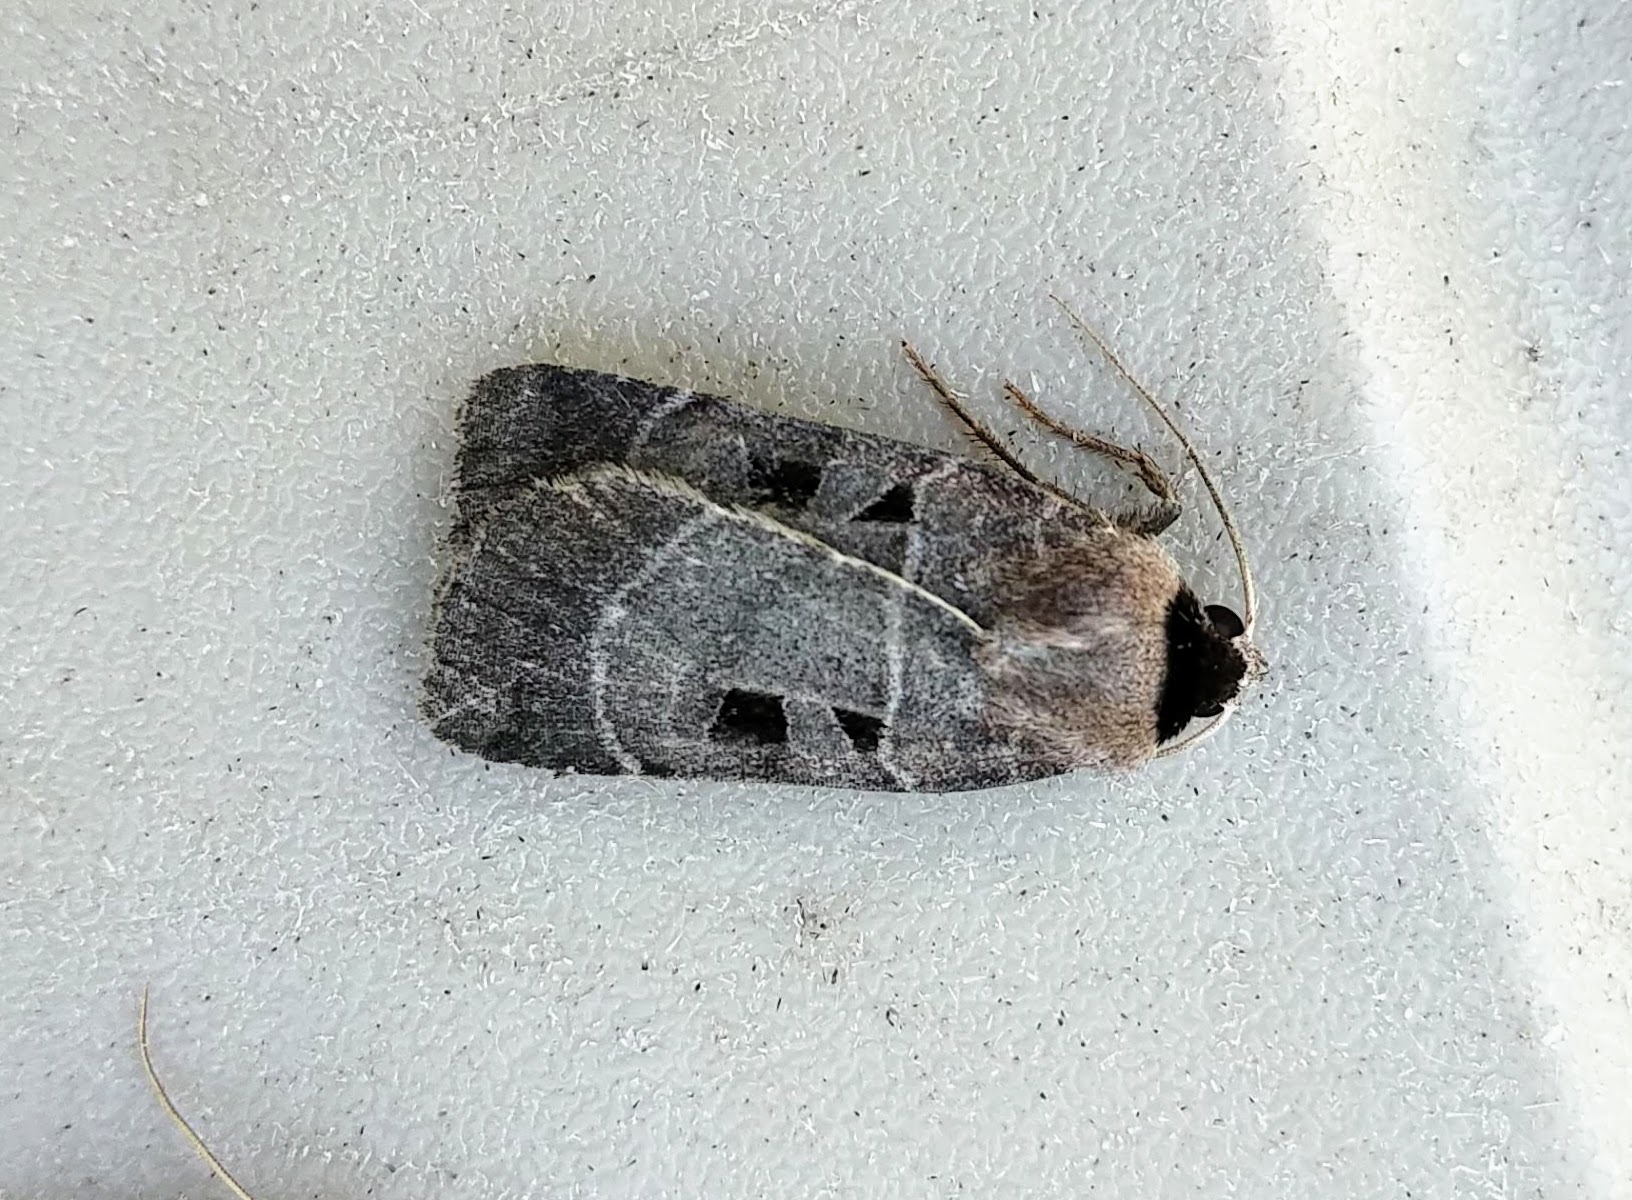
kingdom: Animalia
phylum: Arthropoda
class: Insecta
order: Lepidoptera
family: Noctuidae
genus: Agnorisma
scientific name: Agnorisma bugrai
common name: Collared dart
